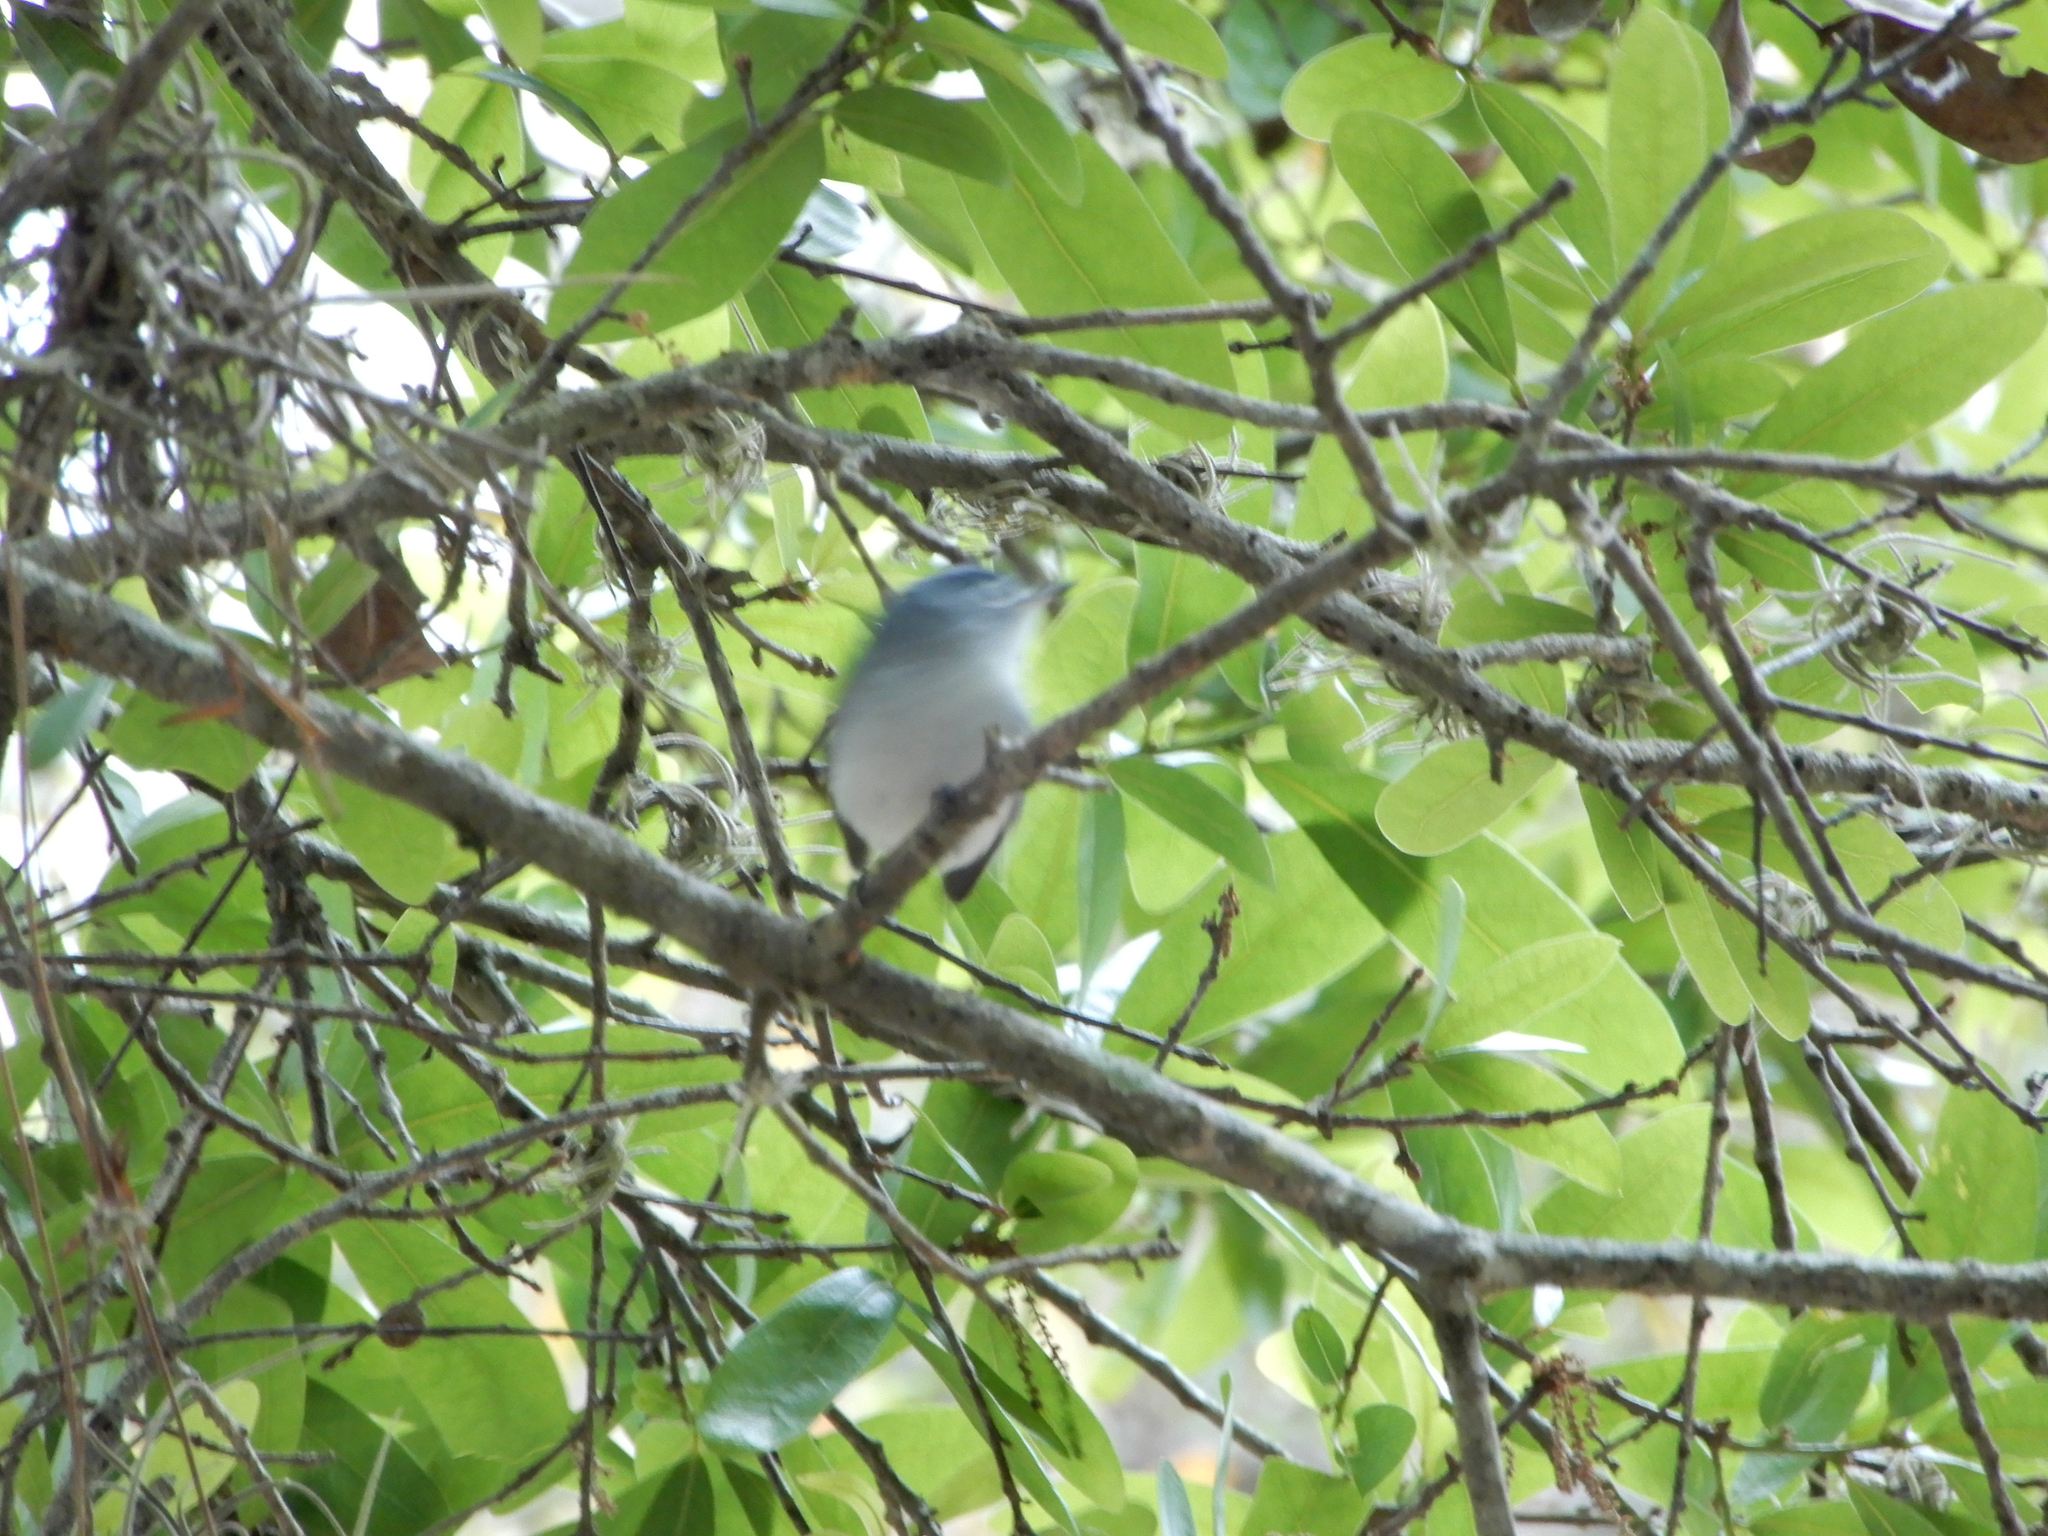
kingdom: Animalia
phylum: Chordata
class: Aves
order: Passeriformes
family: Polioptilidae
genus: Polioptila
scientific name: Polioptila caerulea
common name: Blue-gray gnatcatcher
